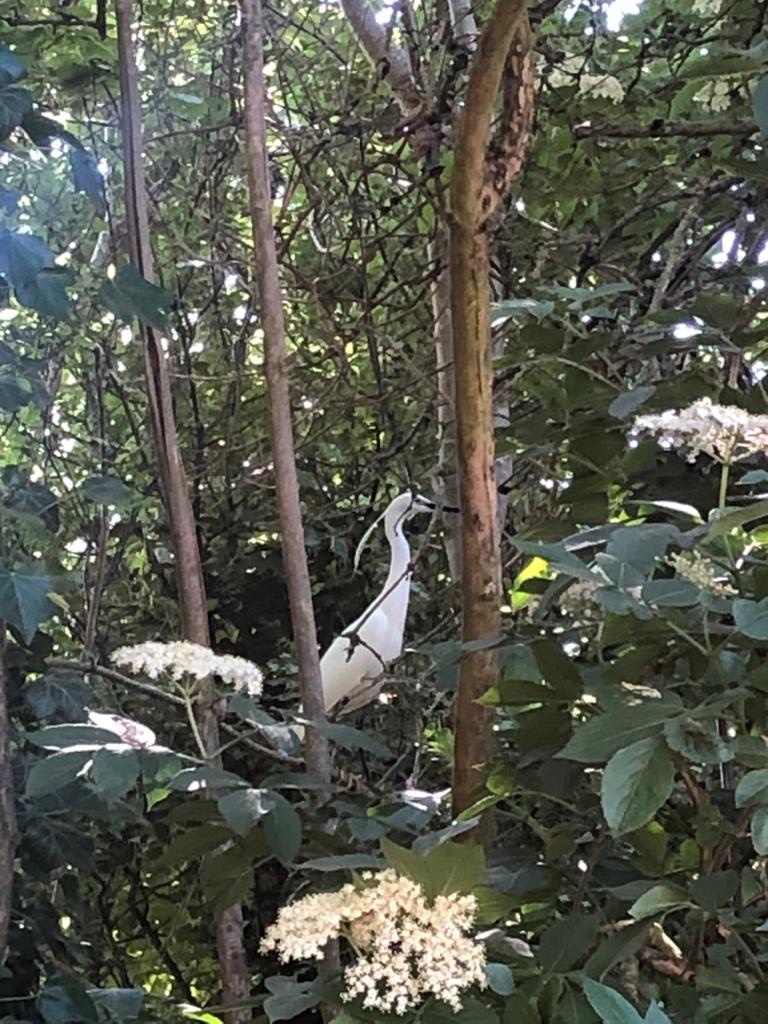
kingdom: Animalia
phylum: Chordata
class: Aves
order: Pelecaniformes
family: Ardeidae
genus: Egretta
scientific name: Egretta garzetta
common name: Little egret
